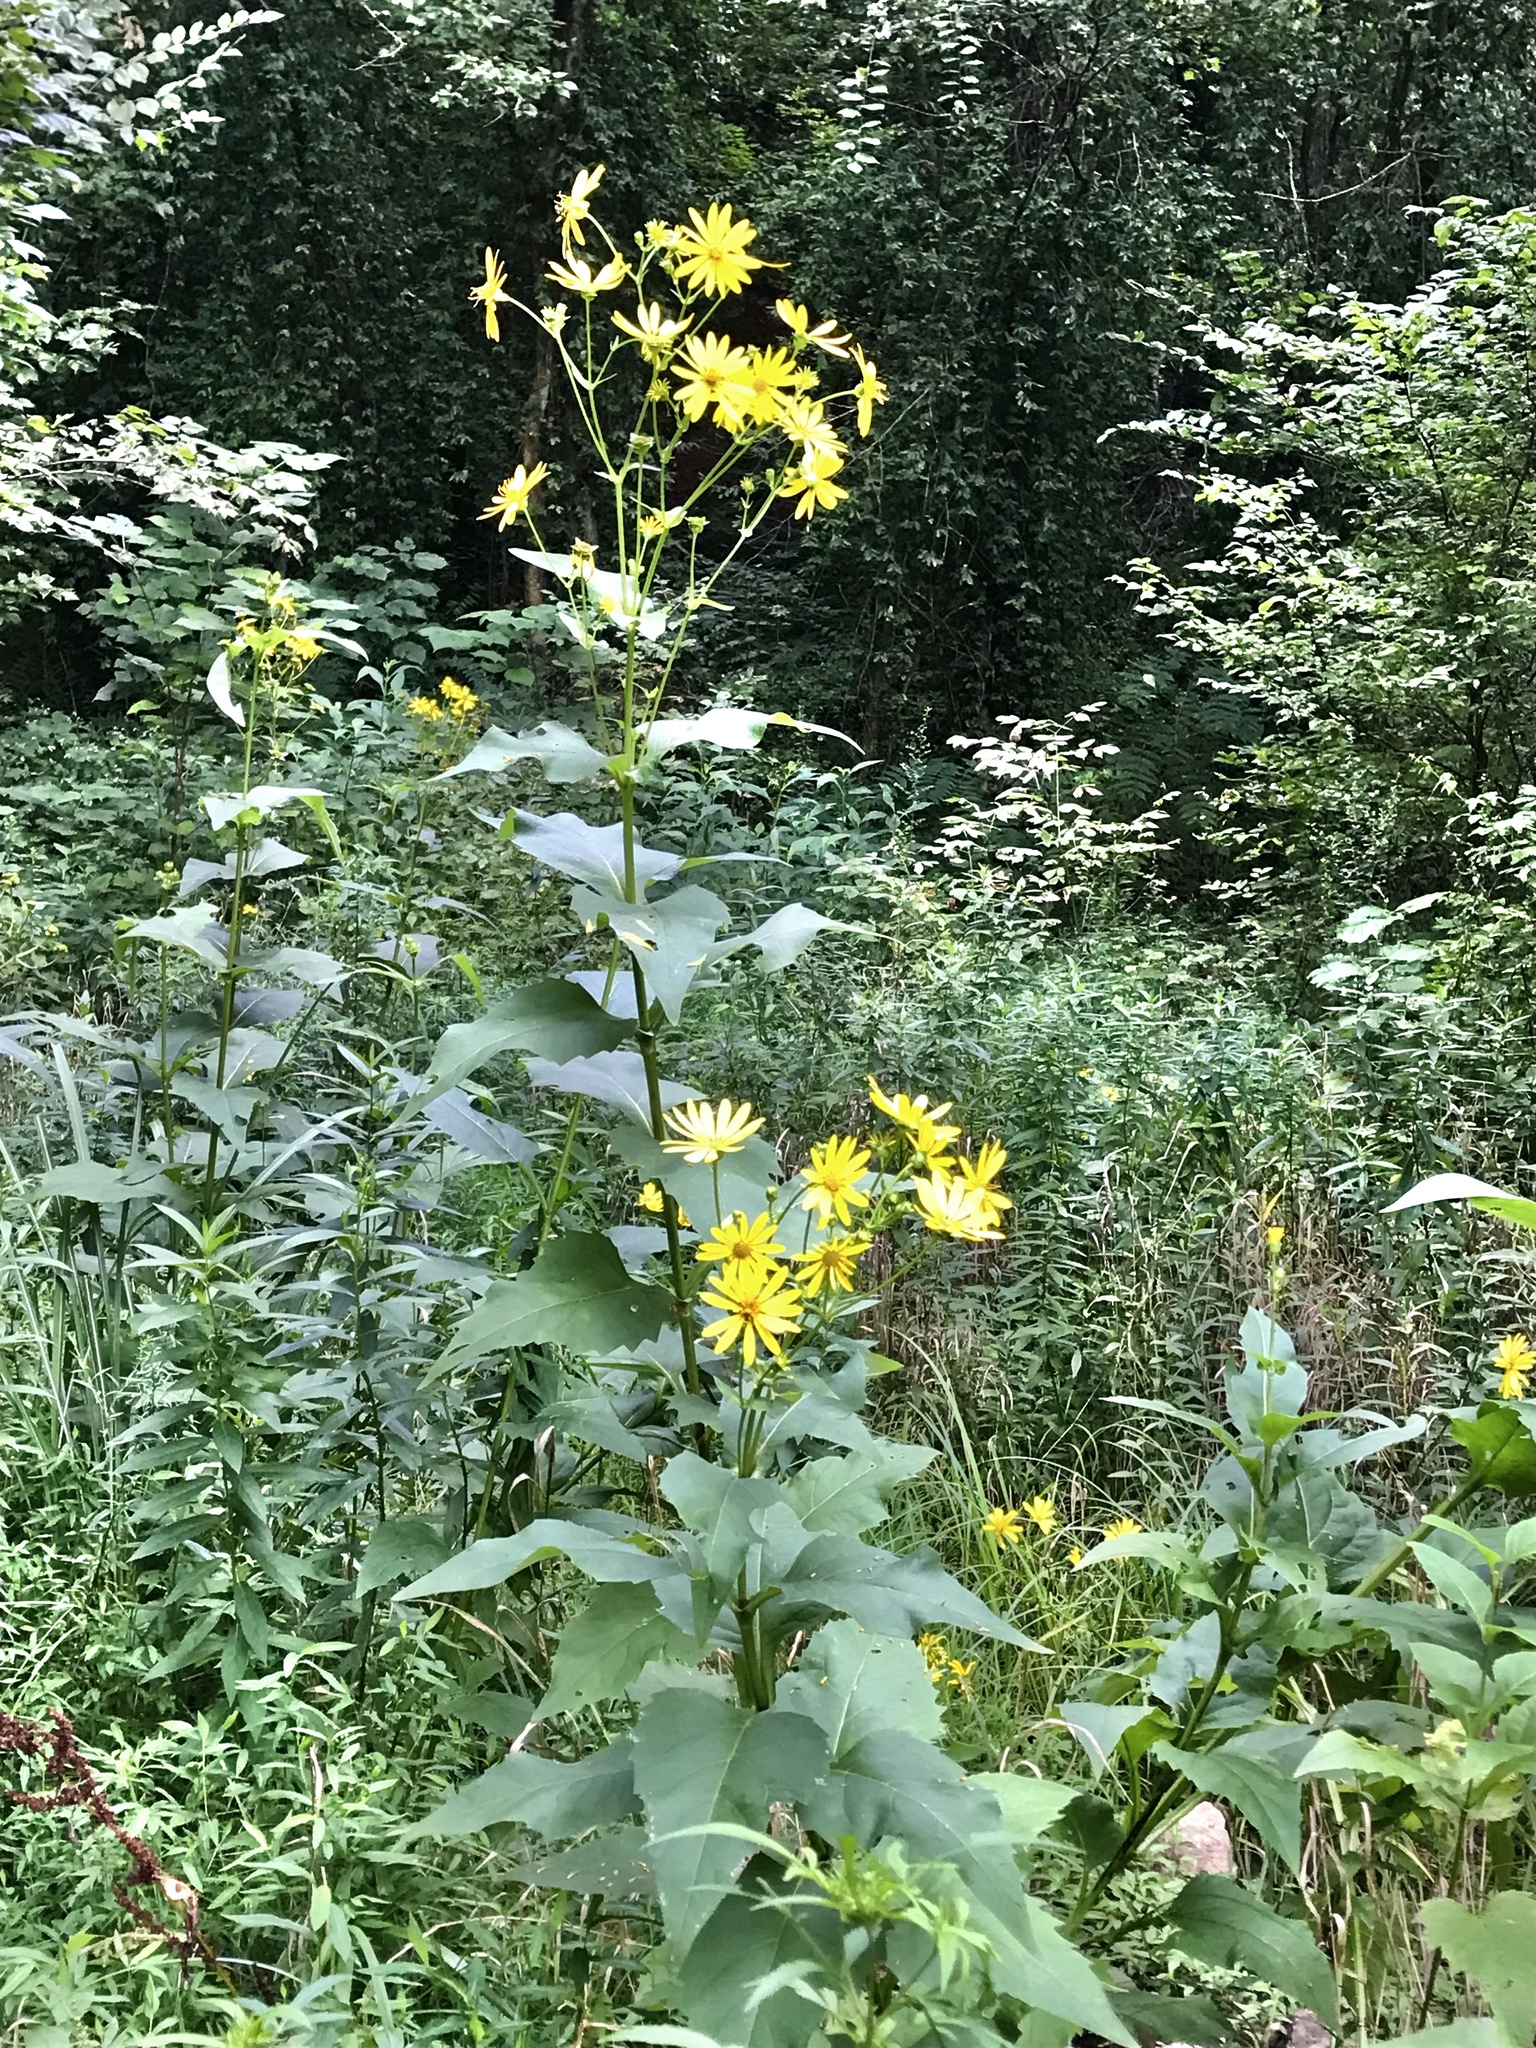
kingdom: Plantae
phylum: Tracheophyta
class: Magnoliopsida
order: Asterales
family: Asteraceae
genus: Silphium
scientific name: Silphium perfoliatum
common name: Cup-plant
